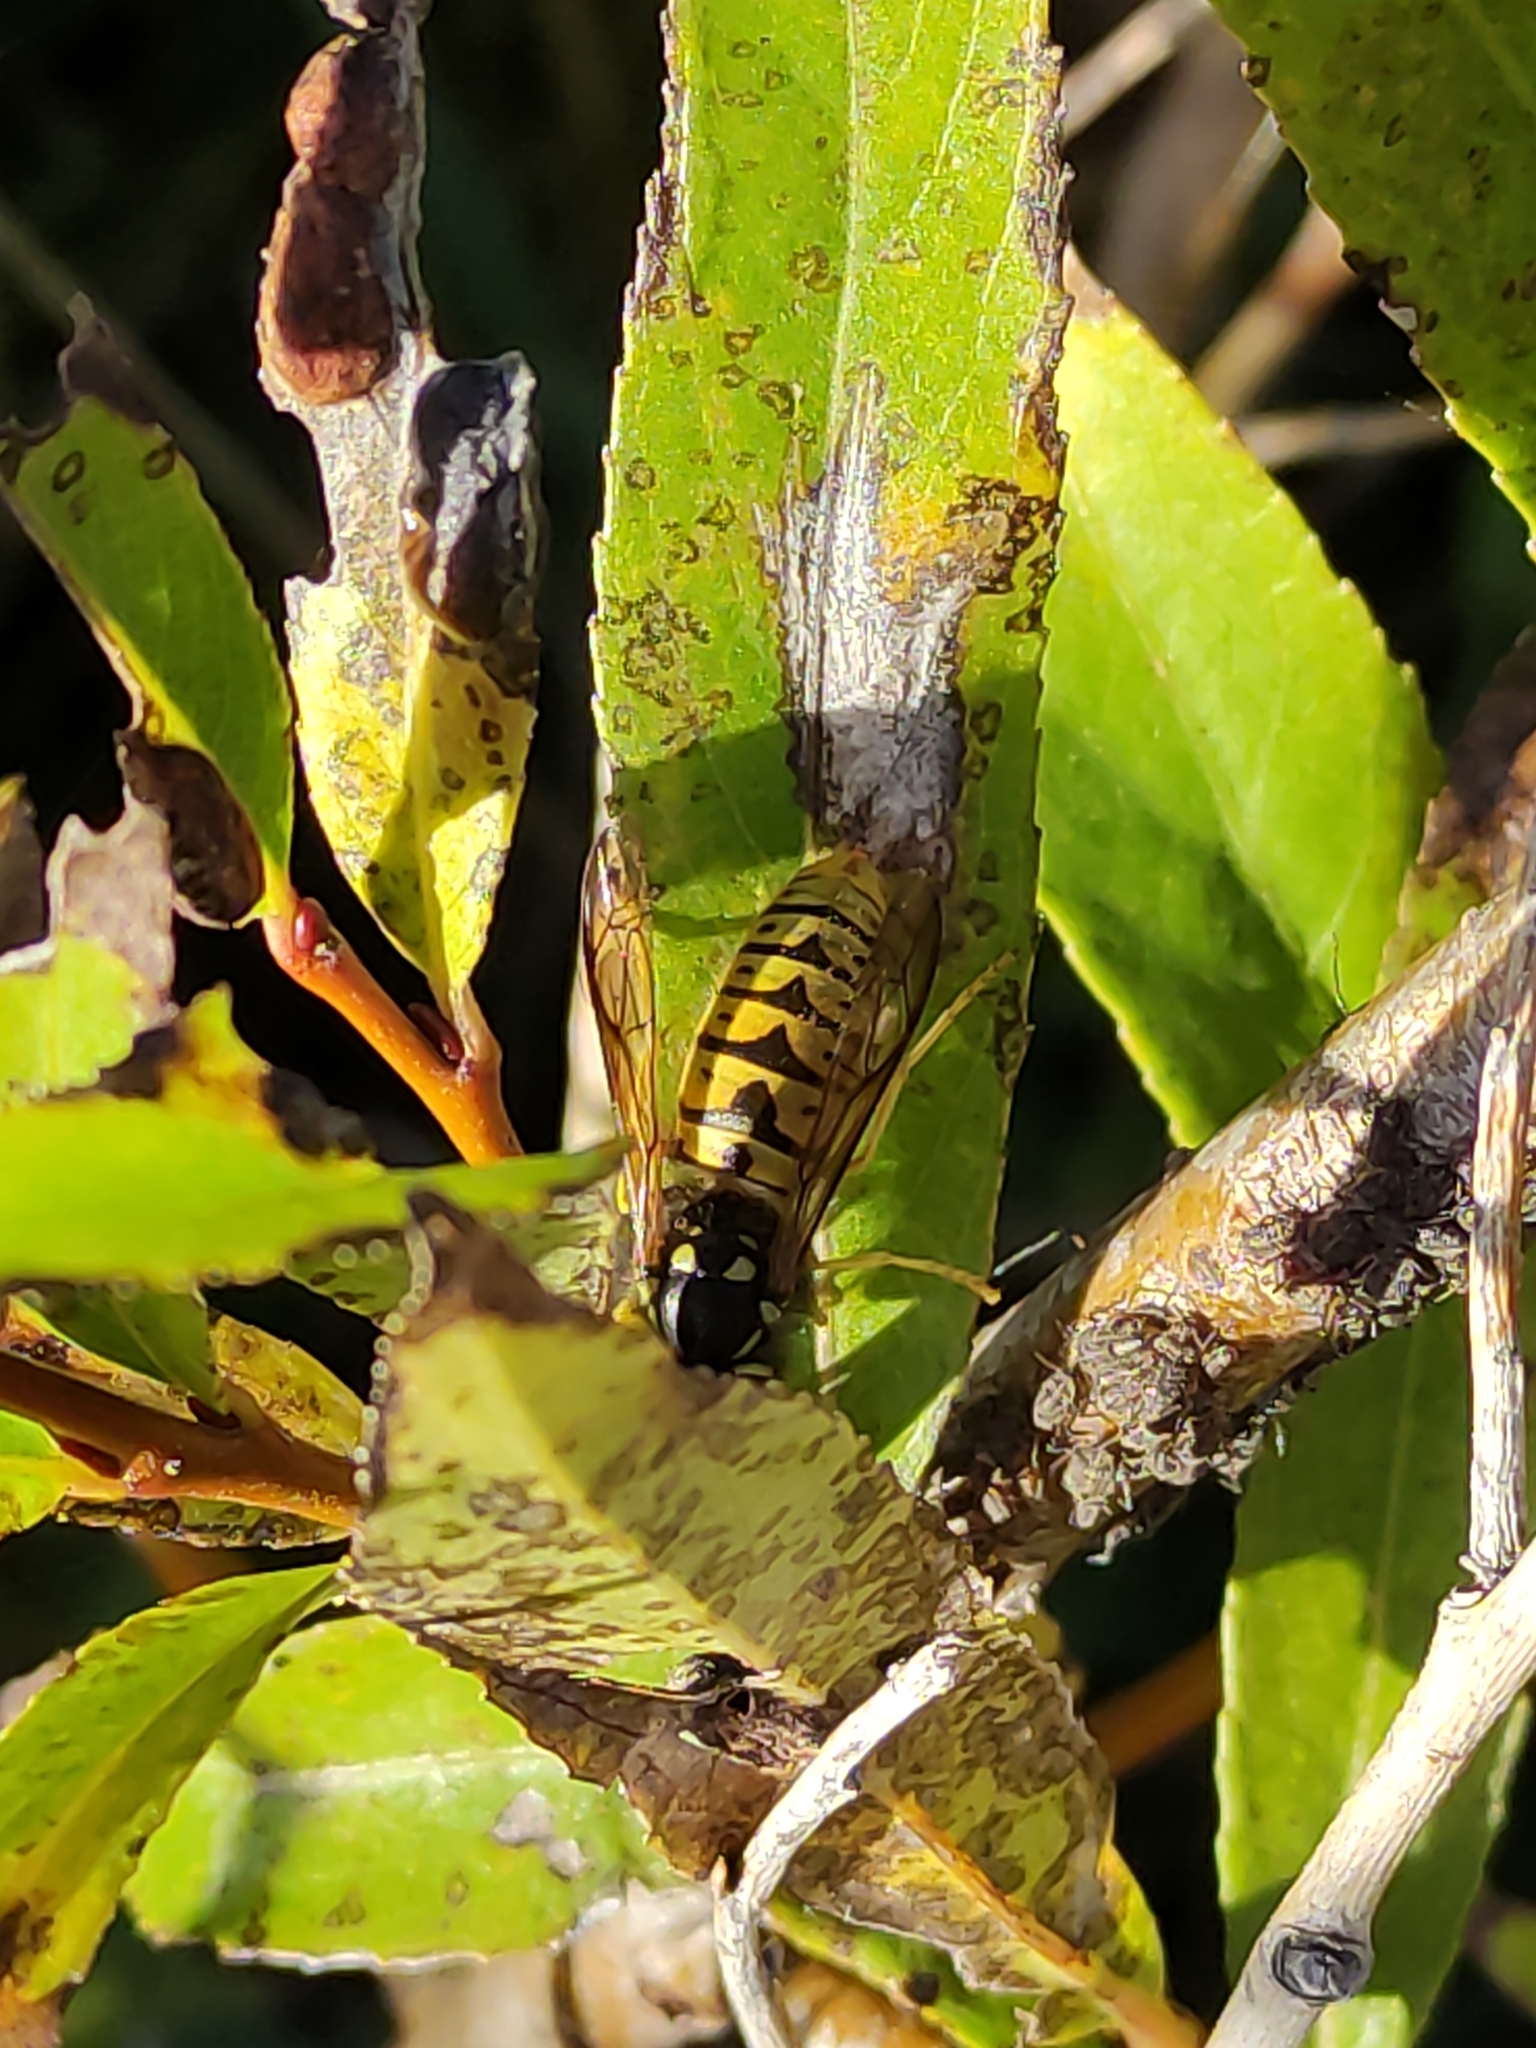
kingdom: Animalia
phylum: Arthropoda
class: Insecta
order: Hymenoptera
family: Vespidae
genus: Vespula
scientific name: Vespula germanica
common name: German wasp
